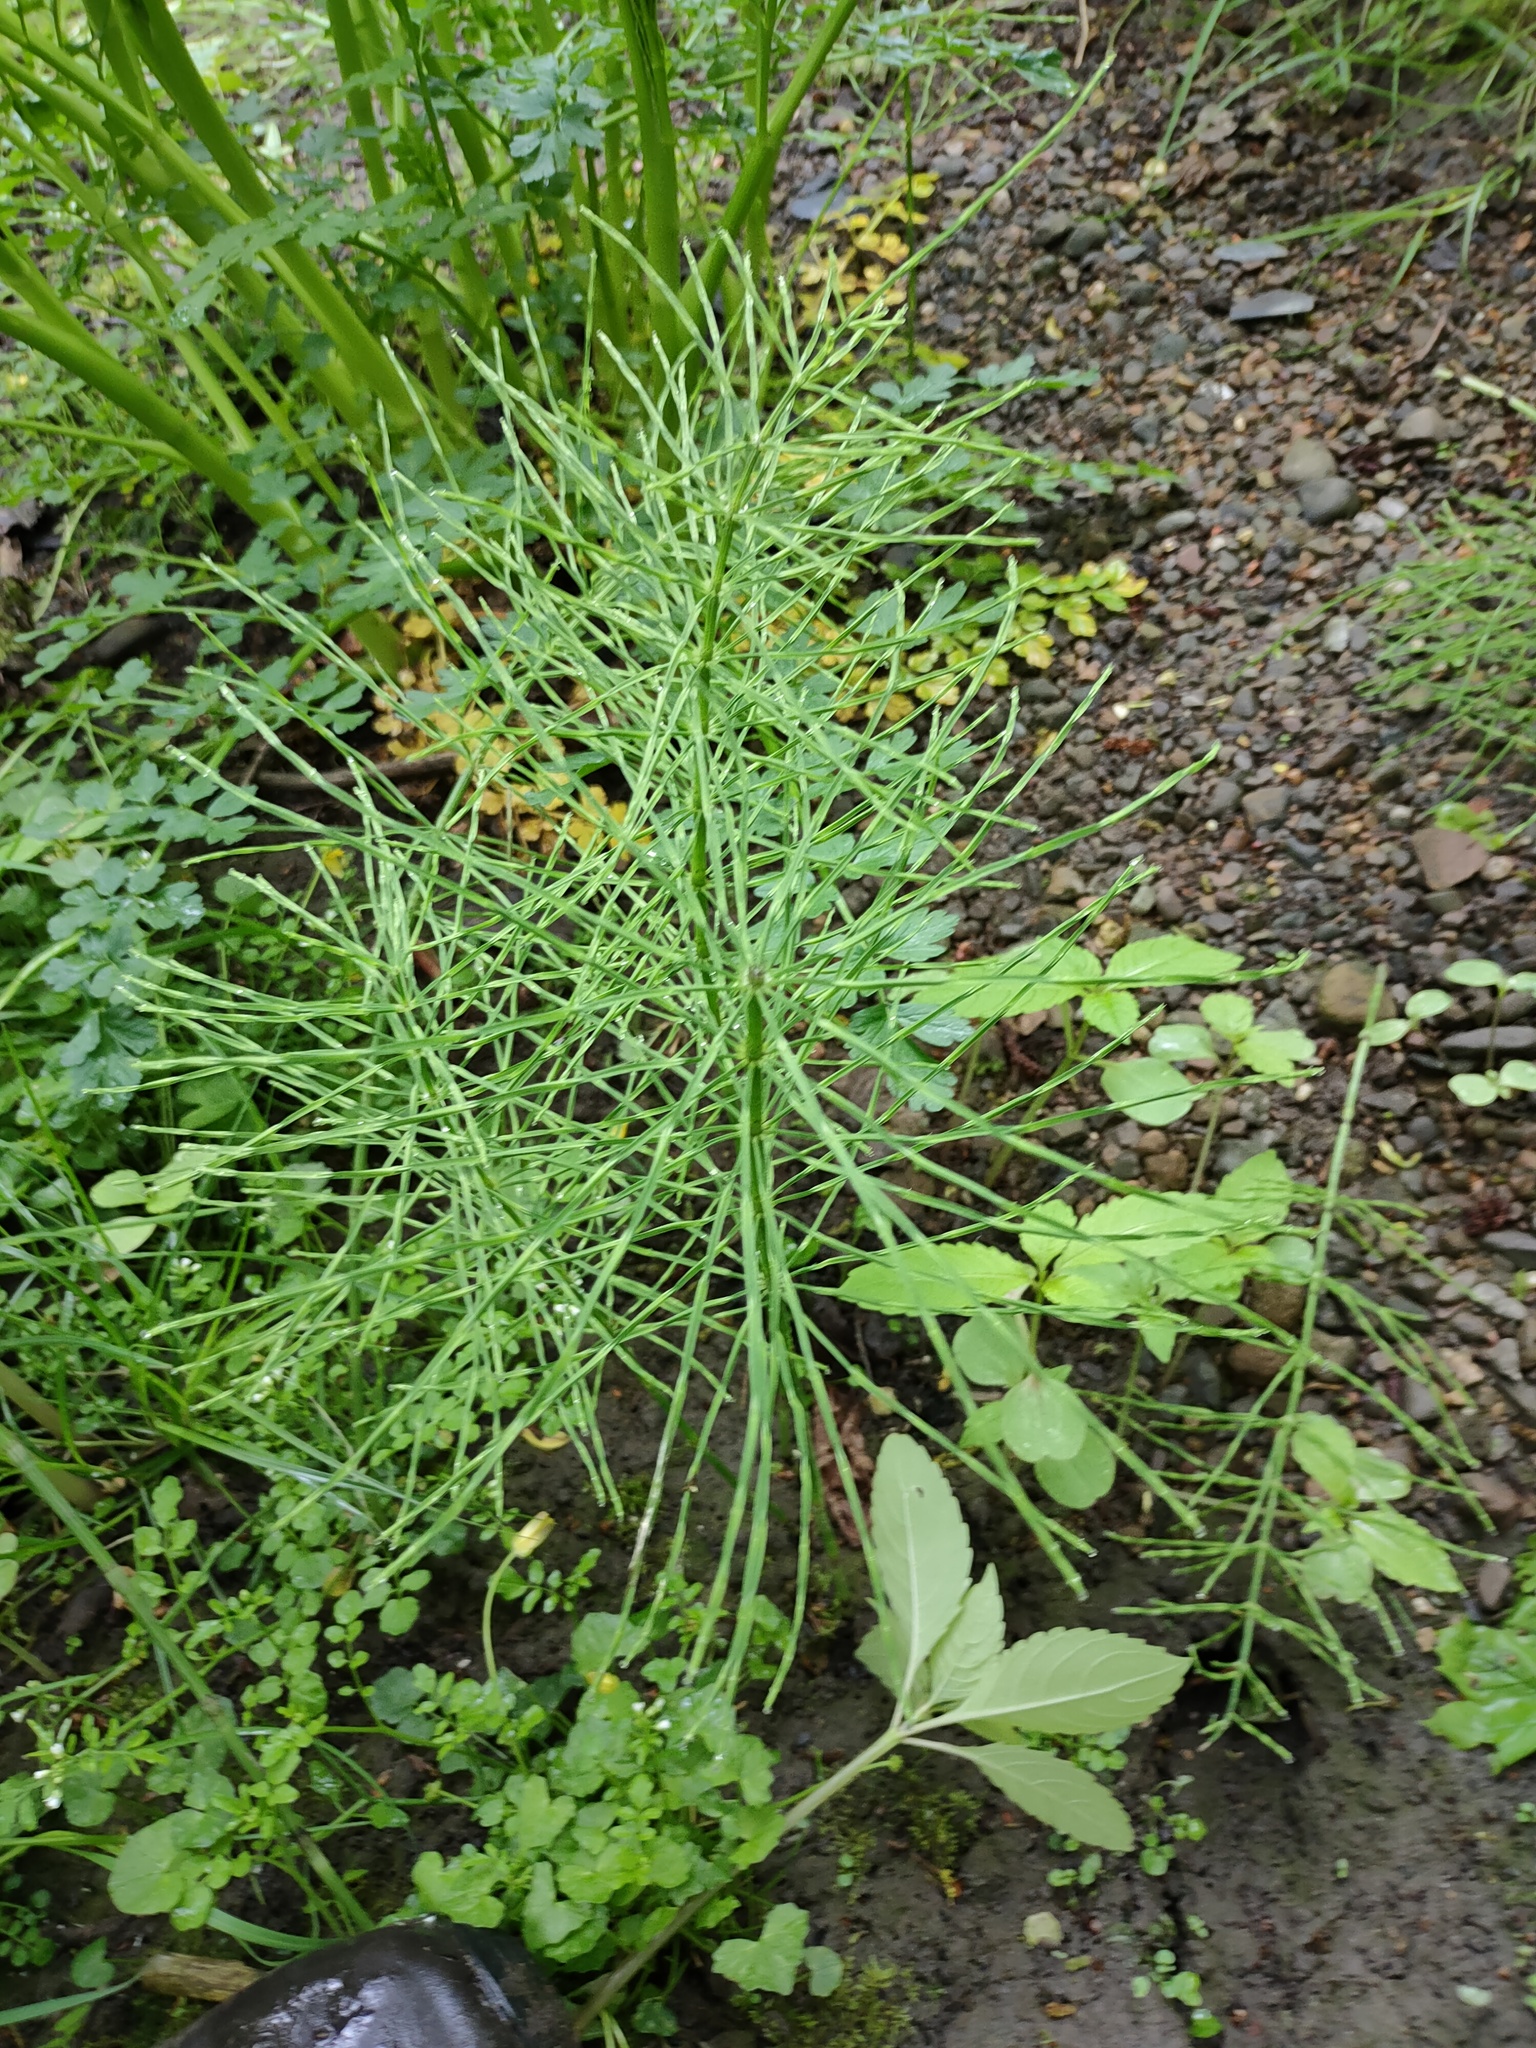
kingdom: Plantae
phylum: Tracheophyta
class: Polypodiopsida
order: Equisetales
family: Equisetaceae
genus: Equisetum
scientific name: Equisetum arvense
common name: Field horsetail
